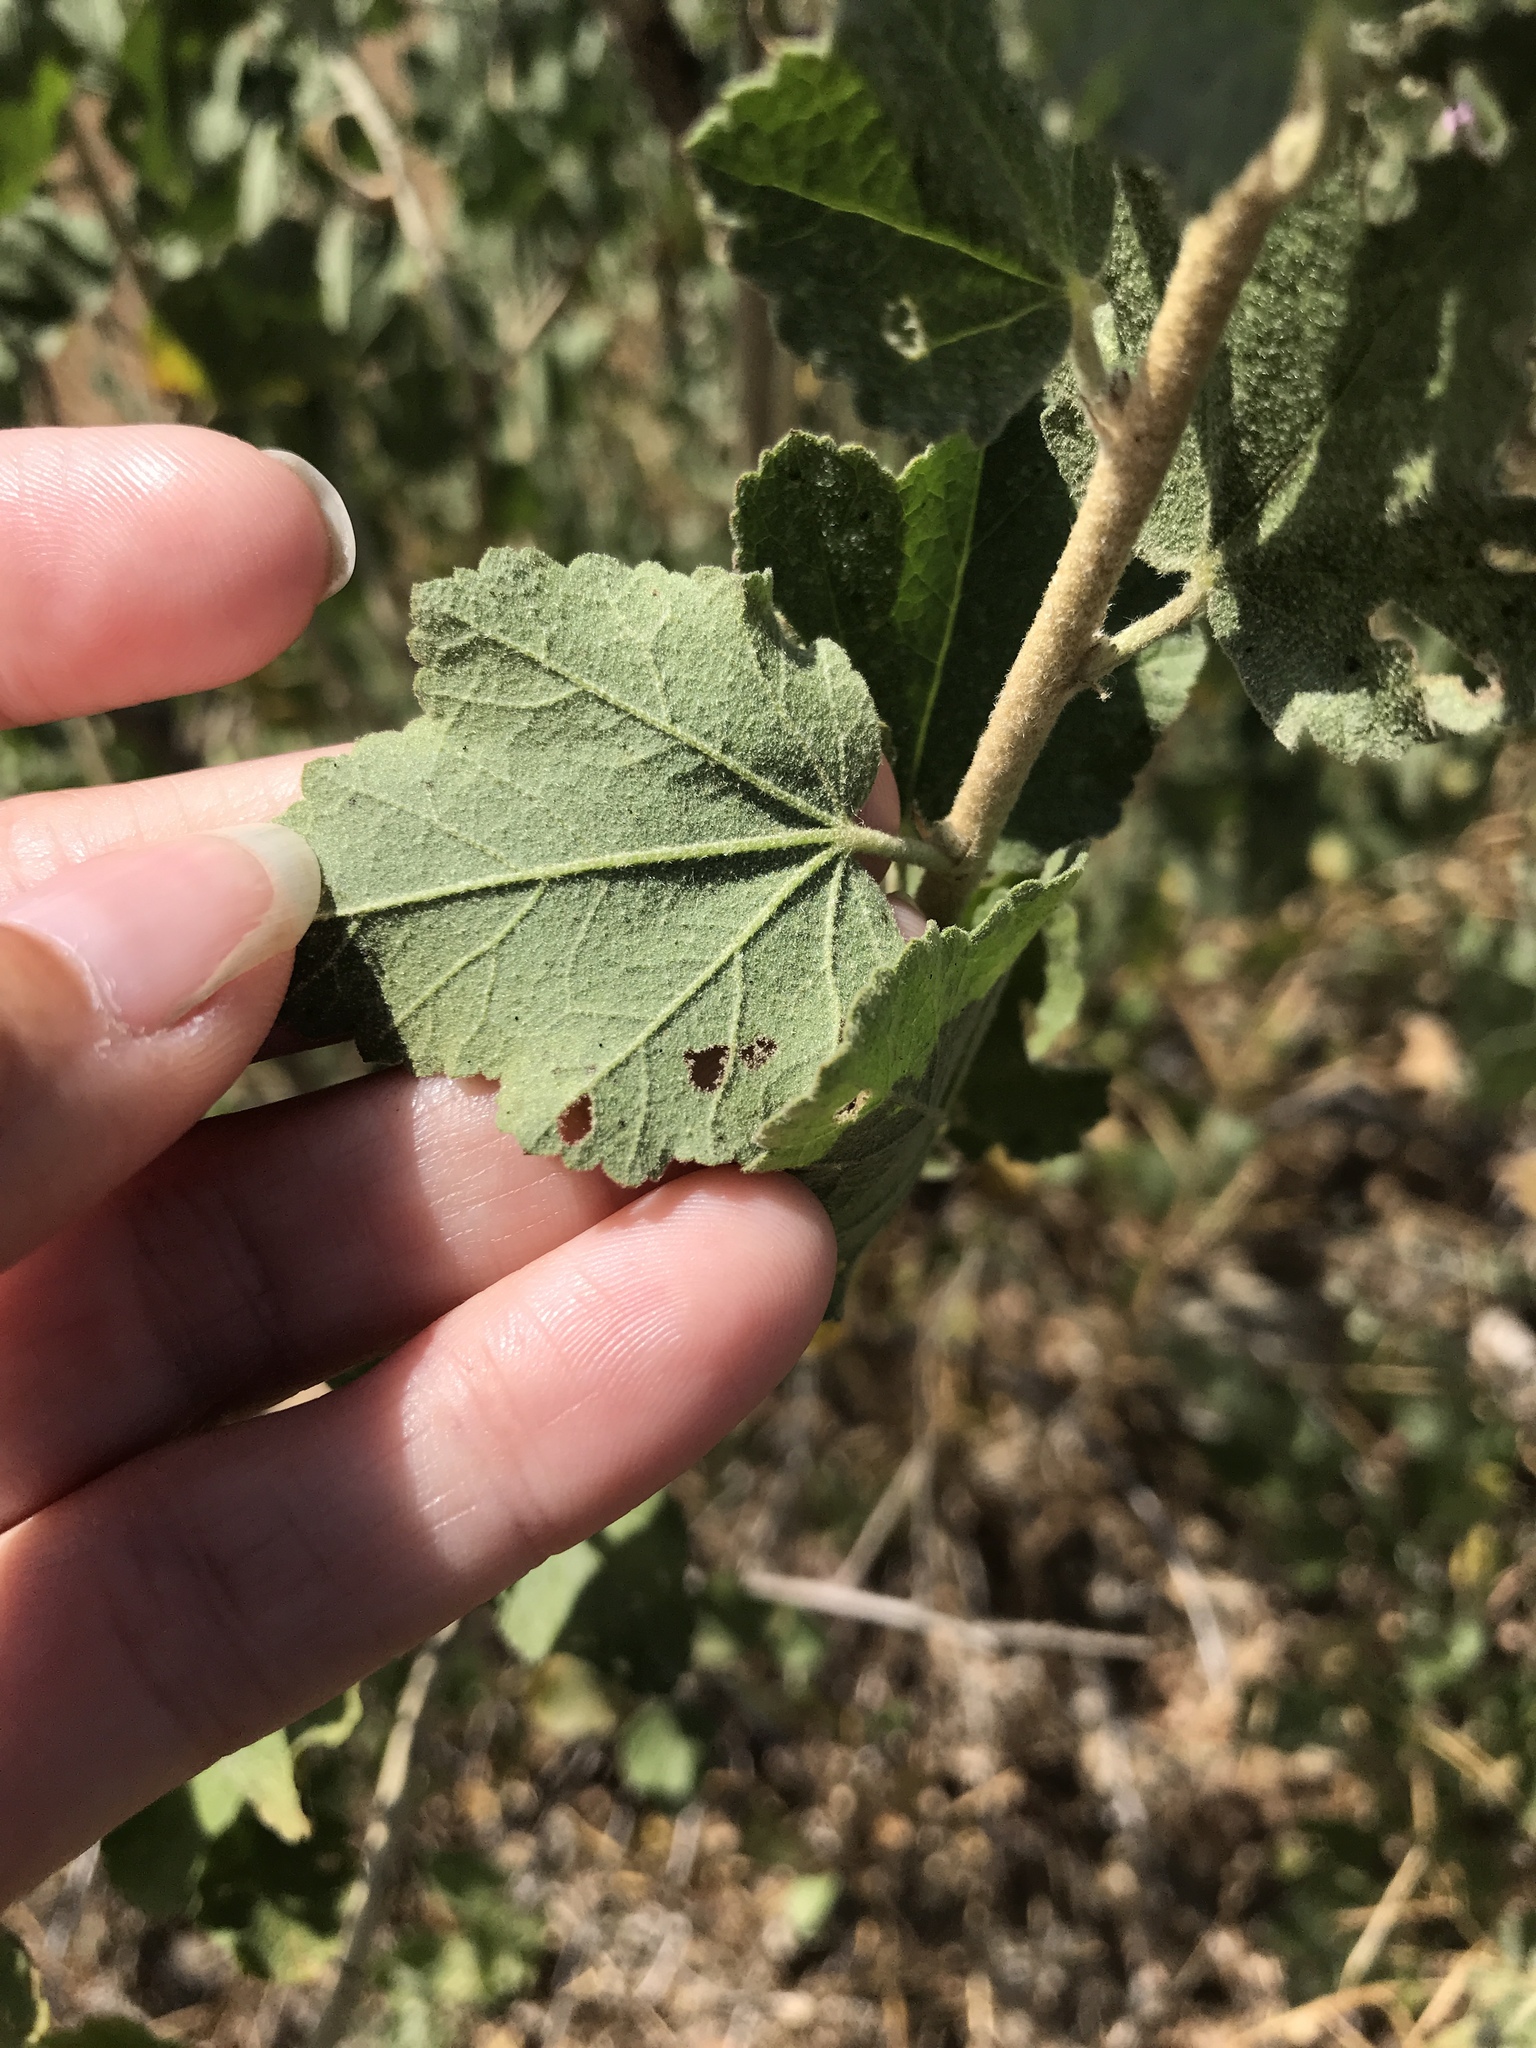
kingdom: Plantae
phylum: Tracheophyta
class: Magnoliopsida
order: Malvales
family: Malvaceae
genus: Malacothamnus
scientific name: Malacothamnus fasciculatus
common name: Sant cruz island bush-mallow
